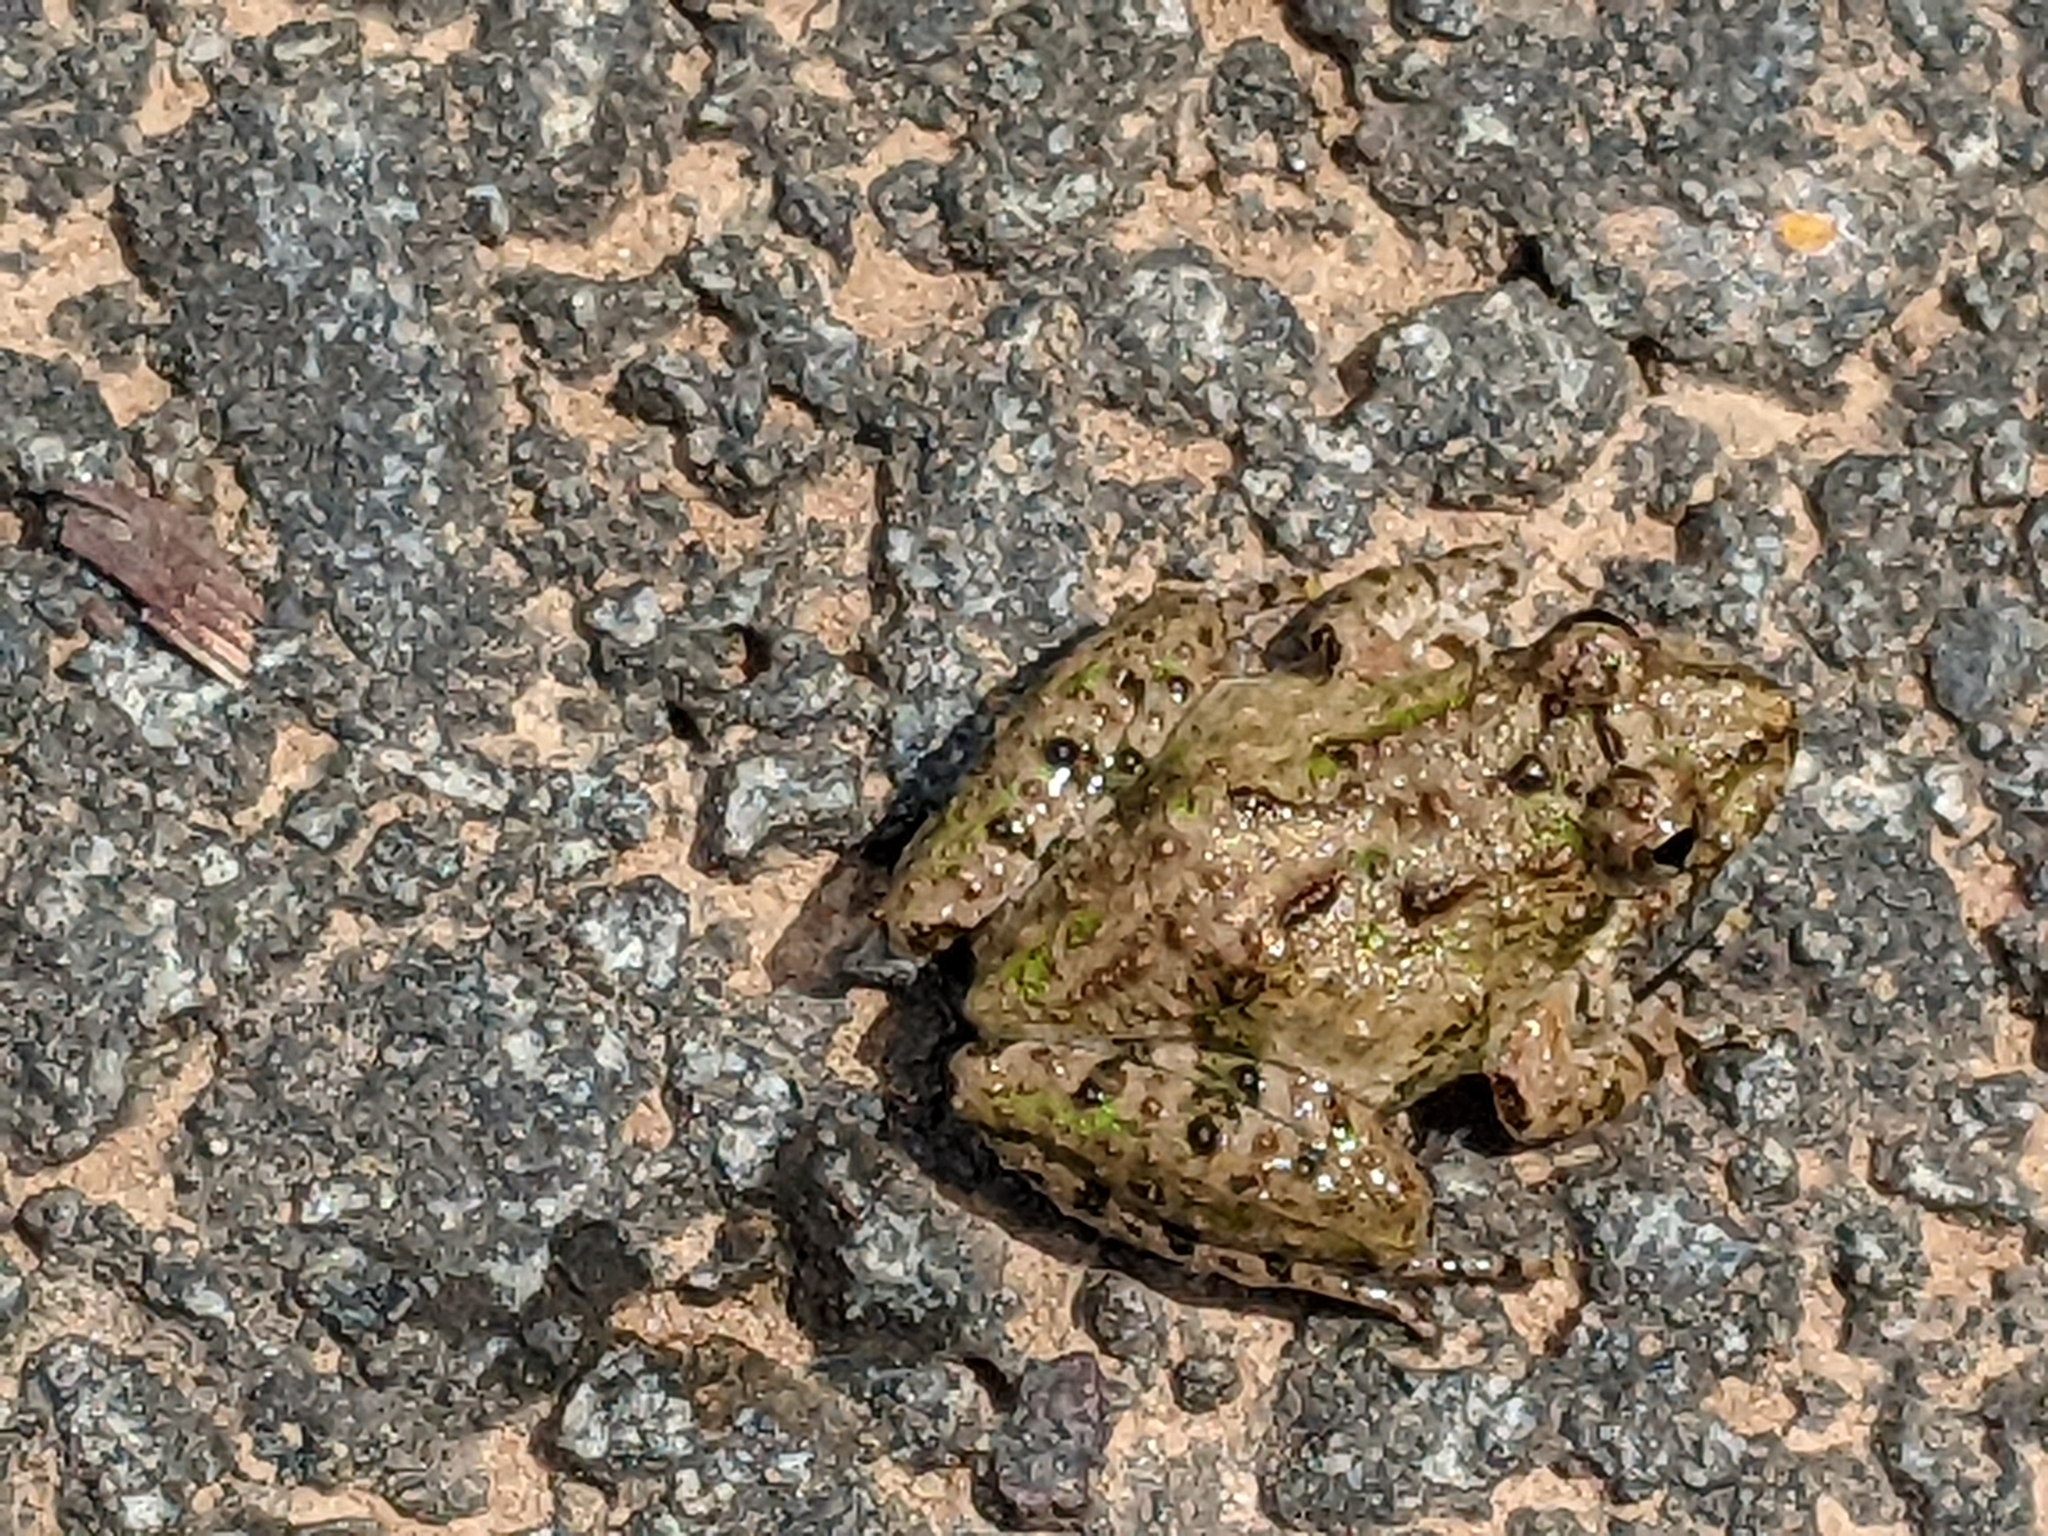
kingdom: Animalia
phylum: Chordata
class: Amphibia
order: Anura
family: Hylidae
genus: Acris
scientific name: Acris crepitans
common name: Northern cricket frog
